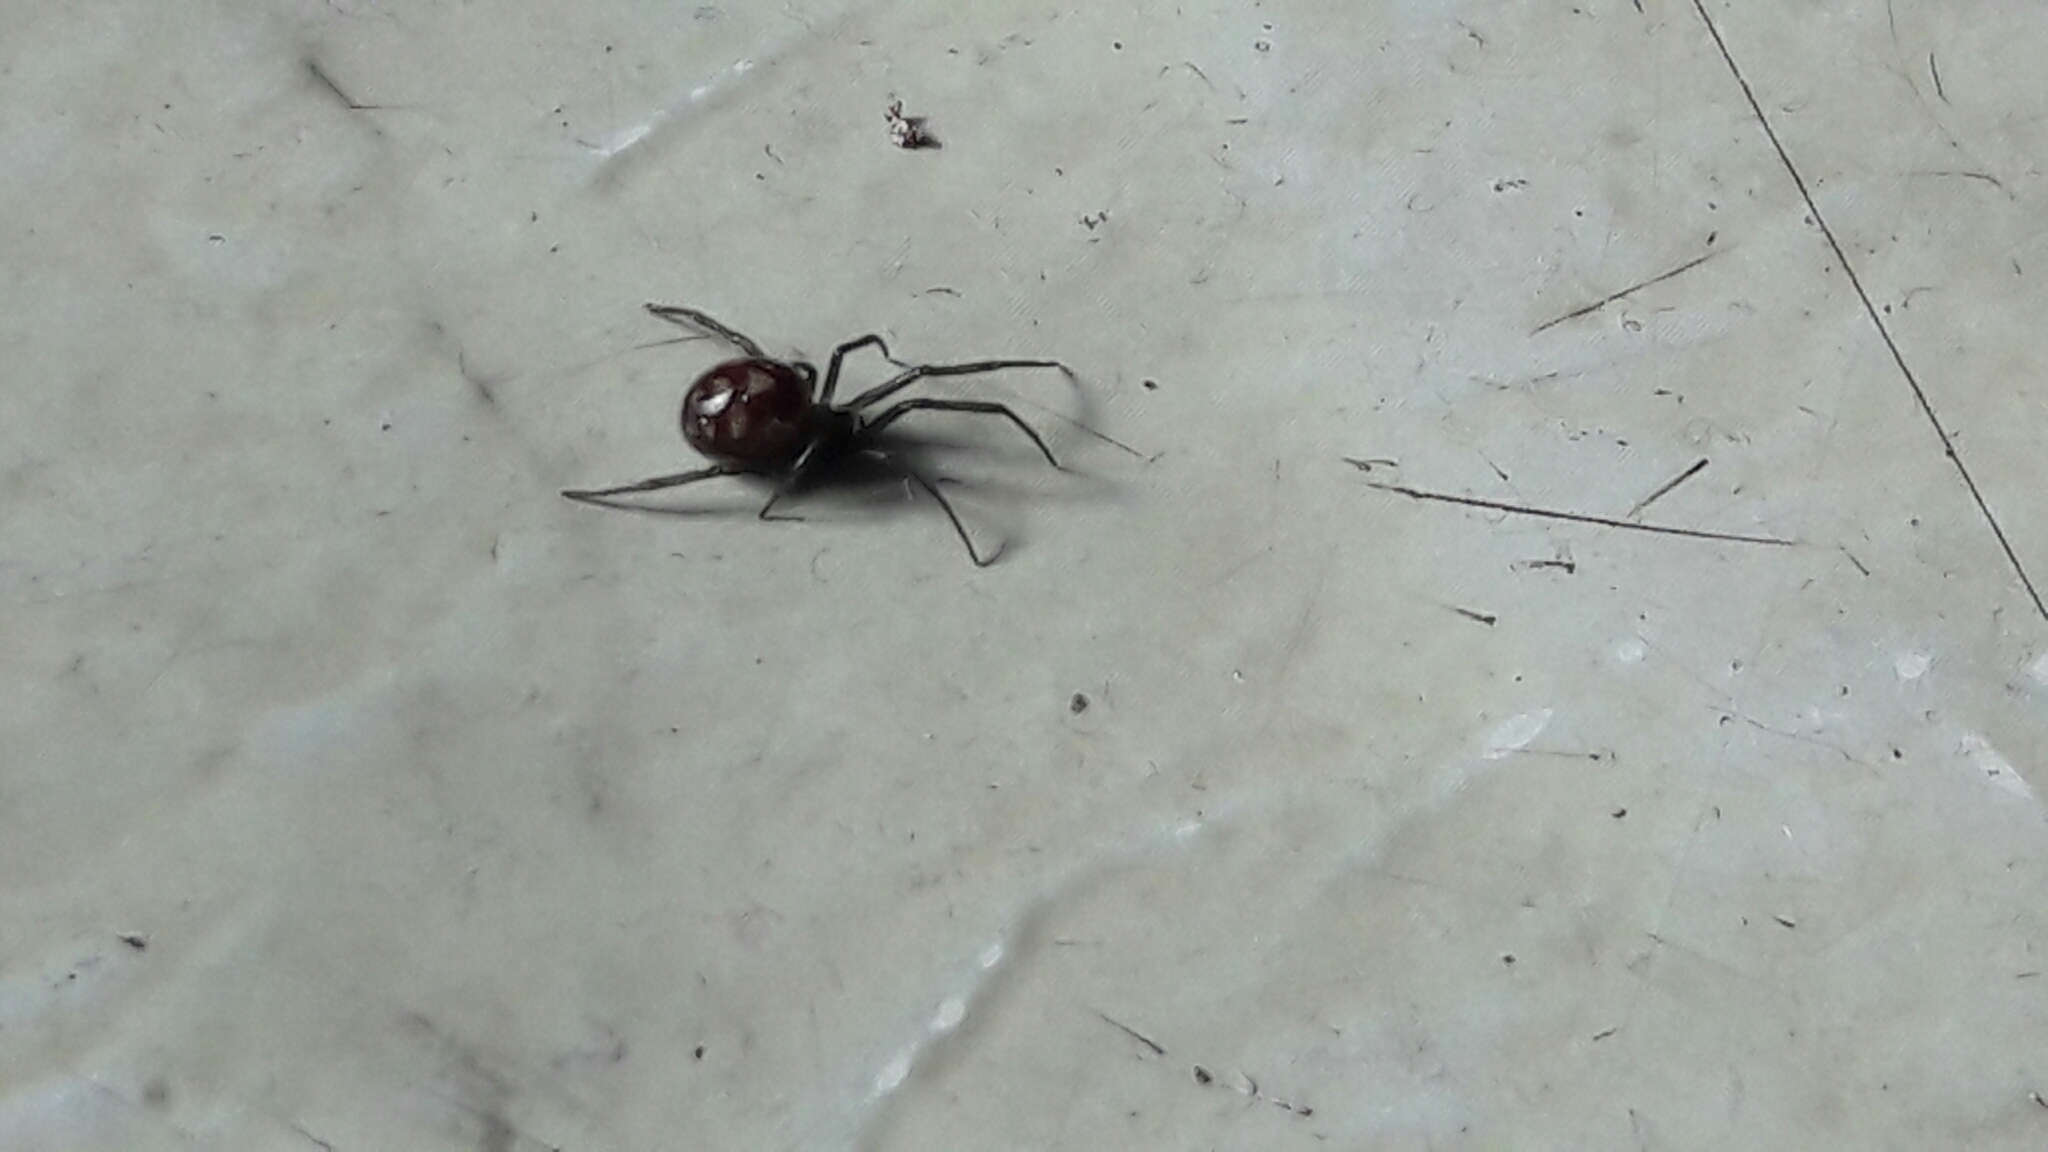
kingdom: Animalia
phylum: Arthropoda
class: Arachnida
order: Araneae
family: Theridiidae
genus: Steatoda
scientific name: Steatoda triangulosa
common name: Triangulate bud spider
